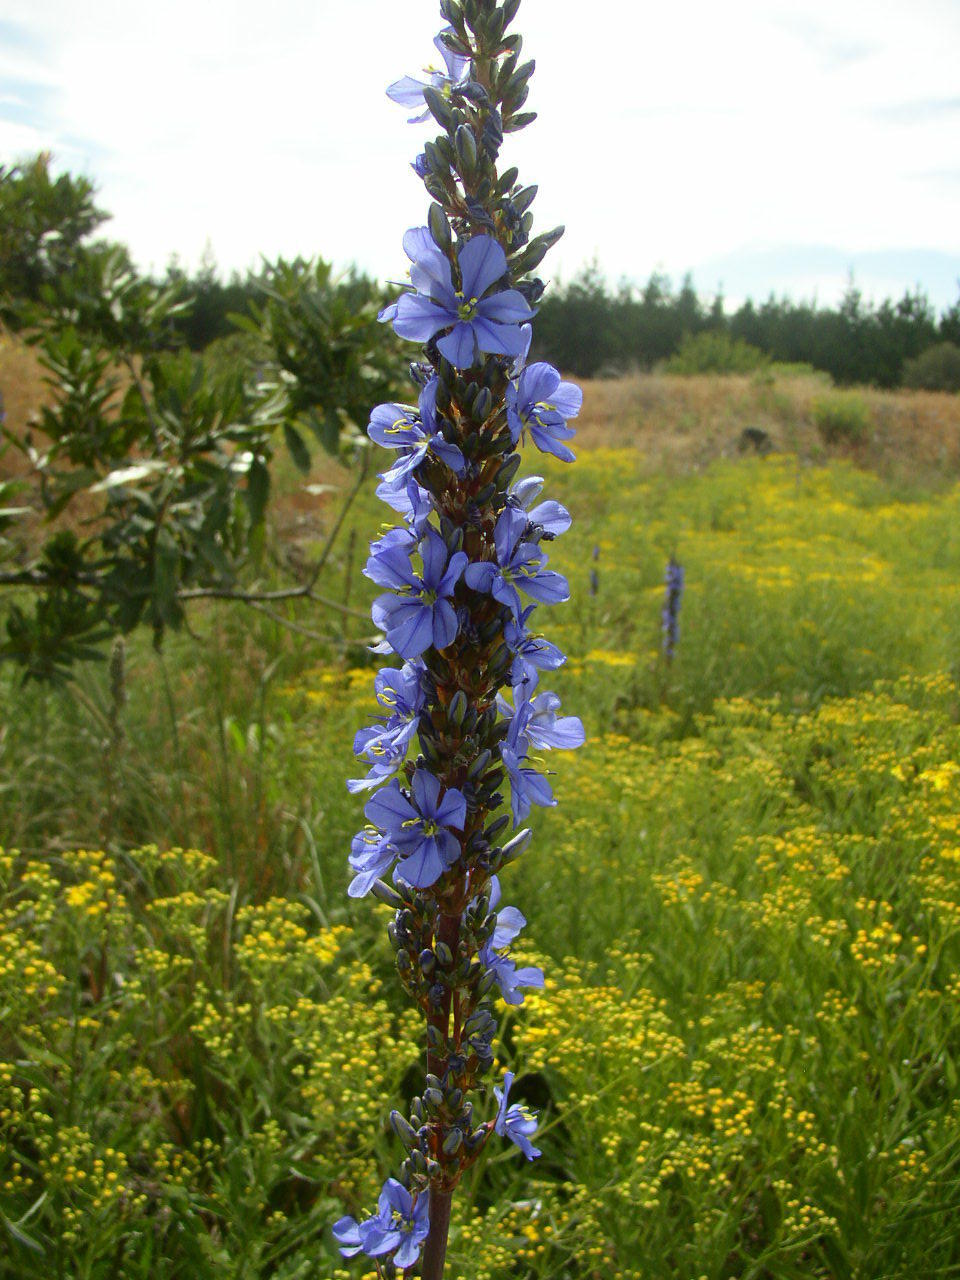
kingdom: Plantae
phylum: Tracheophyta
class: Liliopsida
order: Asparagales
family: Iridaceae
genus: Aristea
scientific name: Aristea capitata
